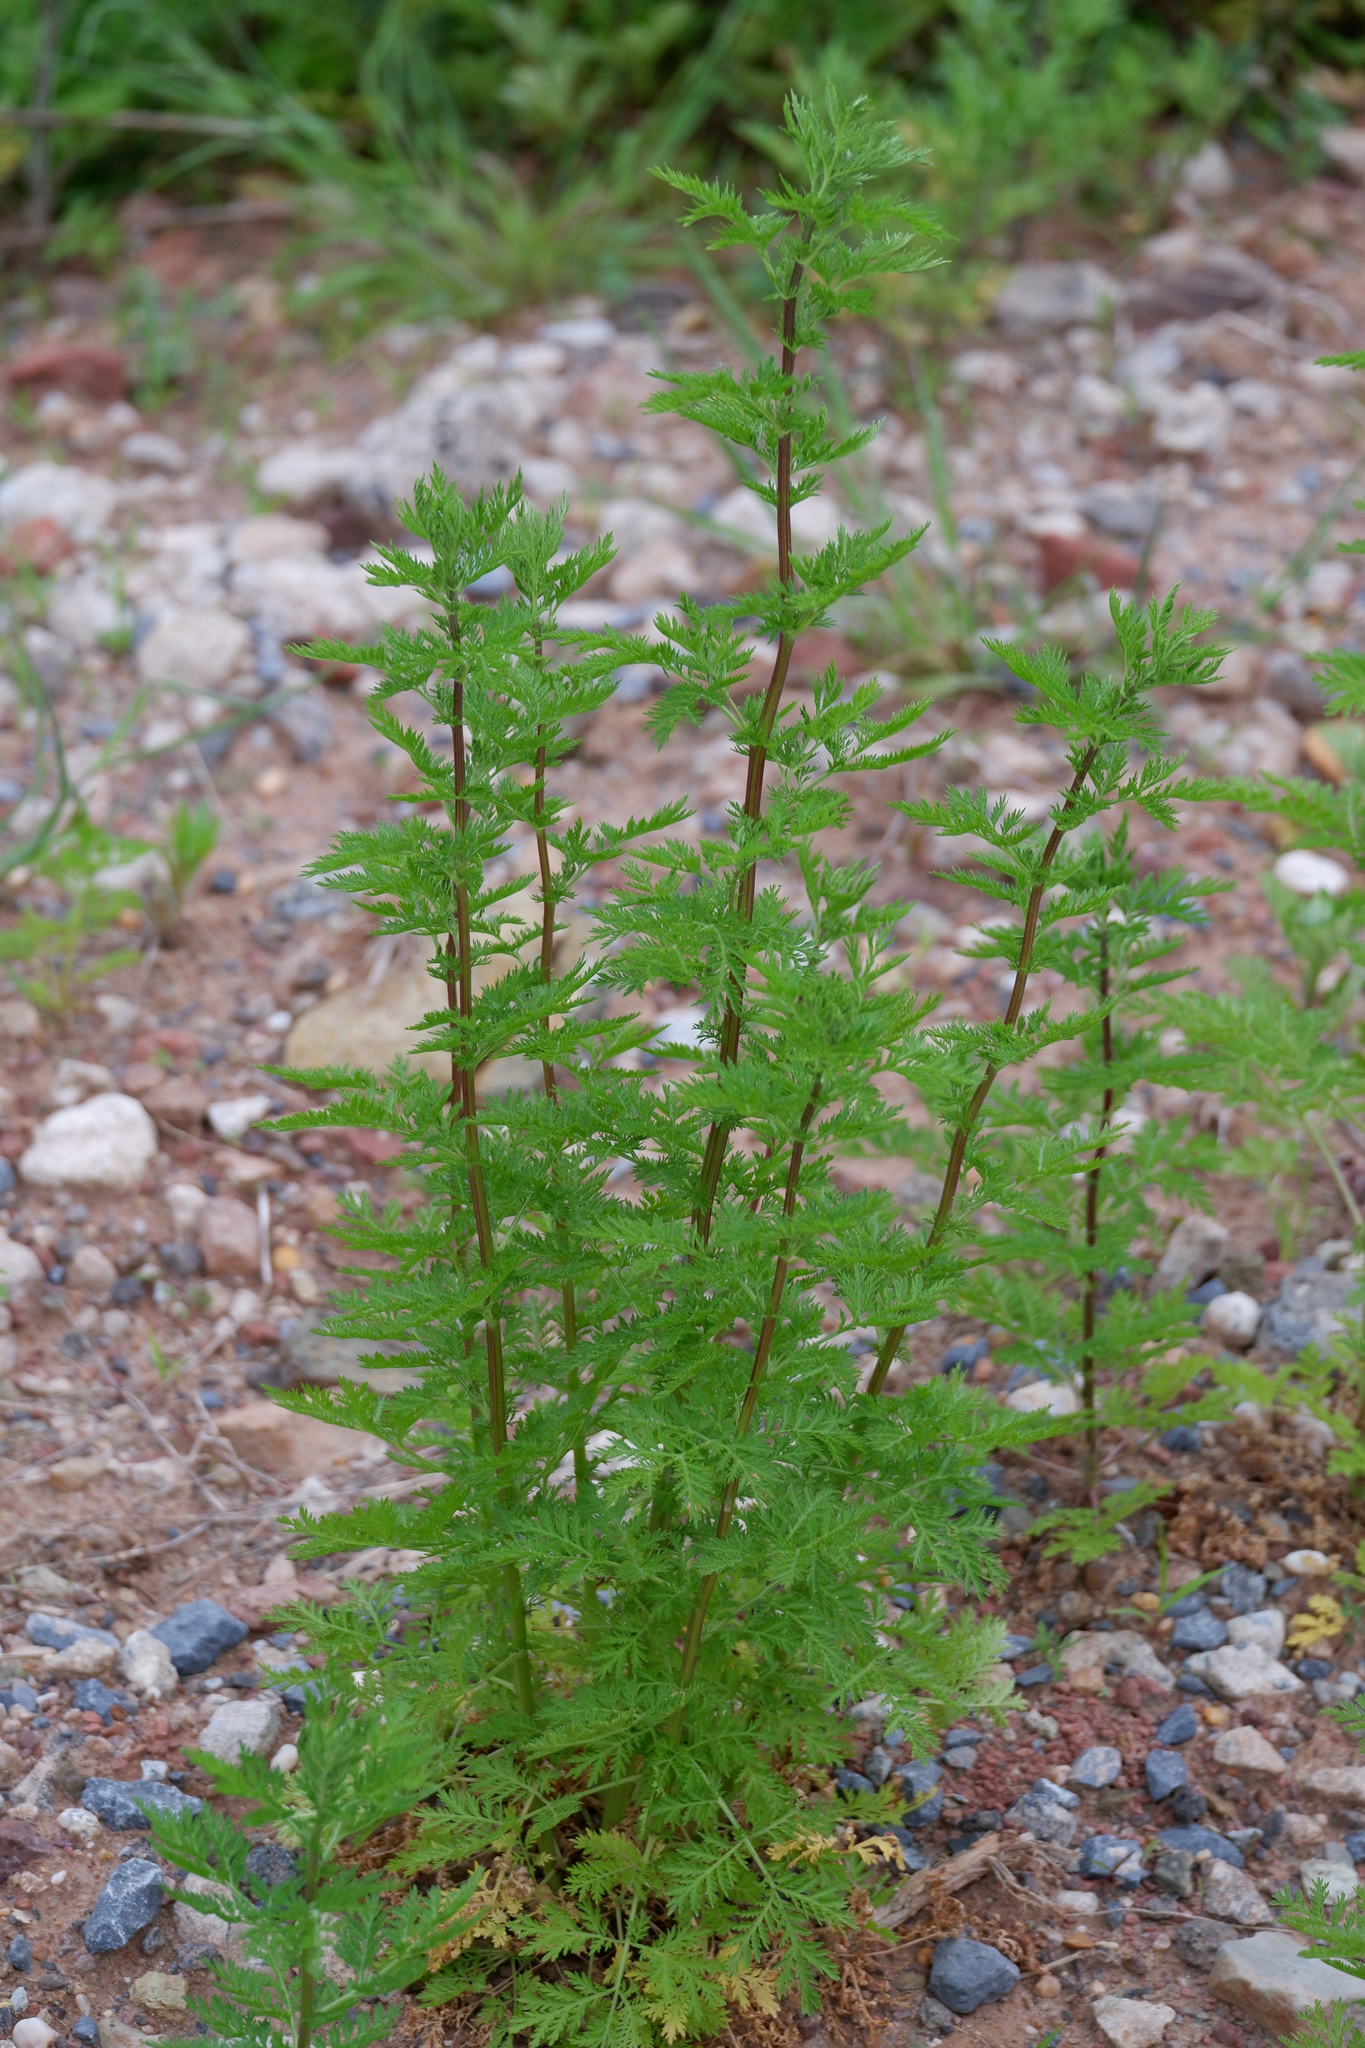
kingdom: Plantae
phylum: Tracheophyta
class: Magnoliopsida
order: Asterales
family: Asteraceae
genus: Artemisia
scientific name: Artemisia annua
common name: Sweet sagewort
